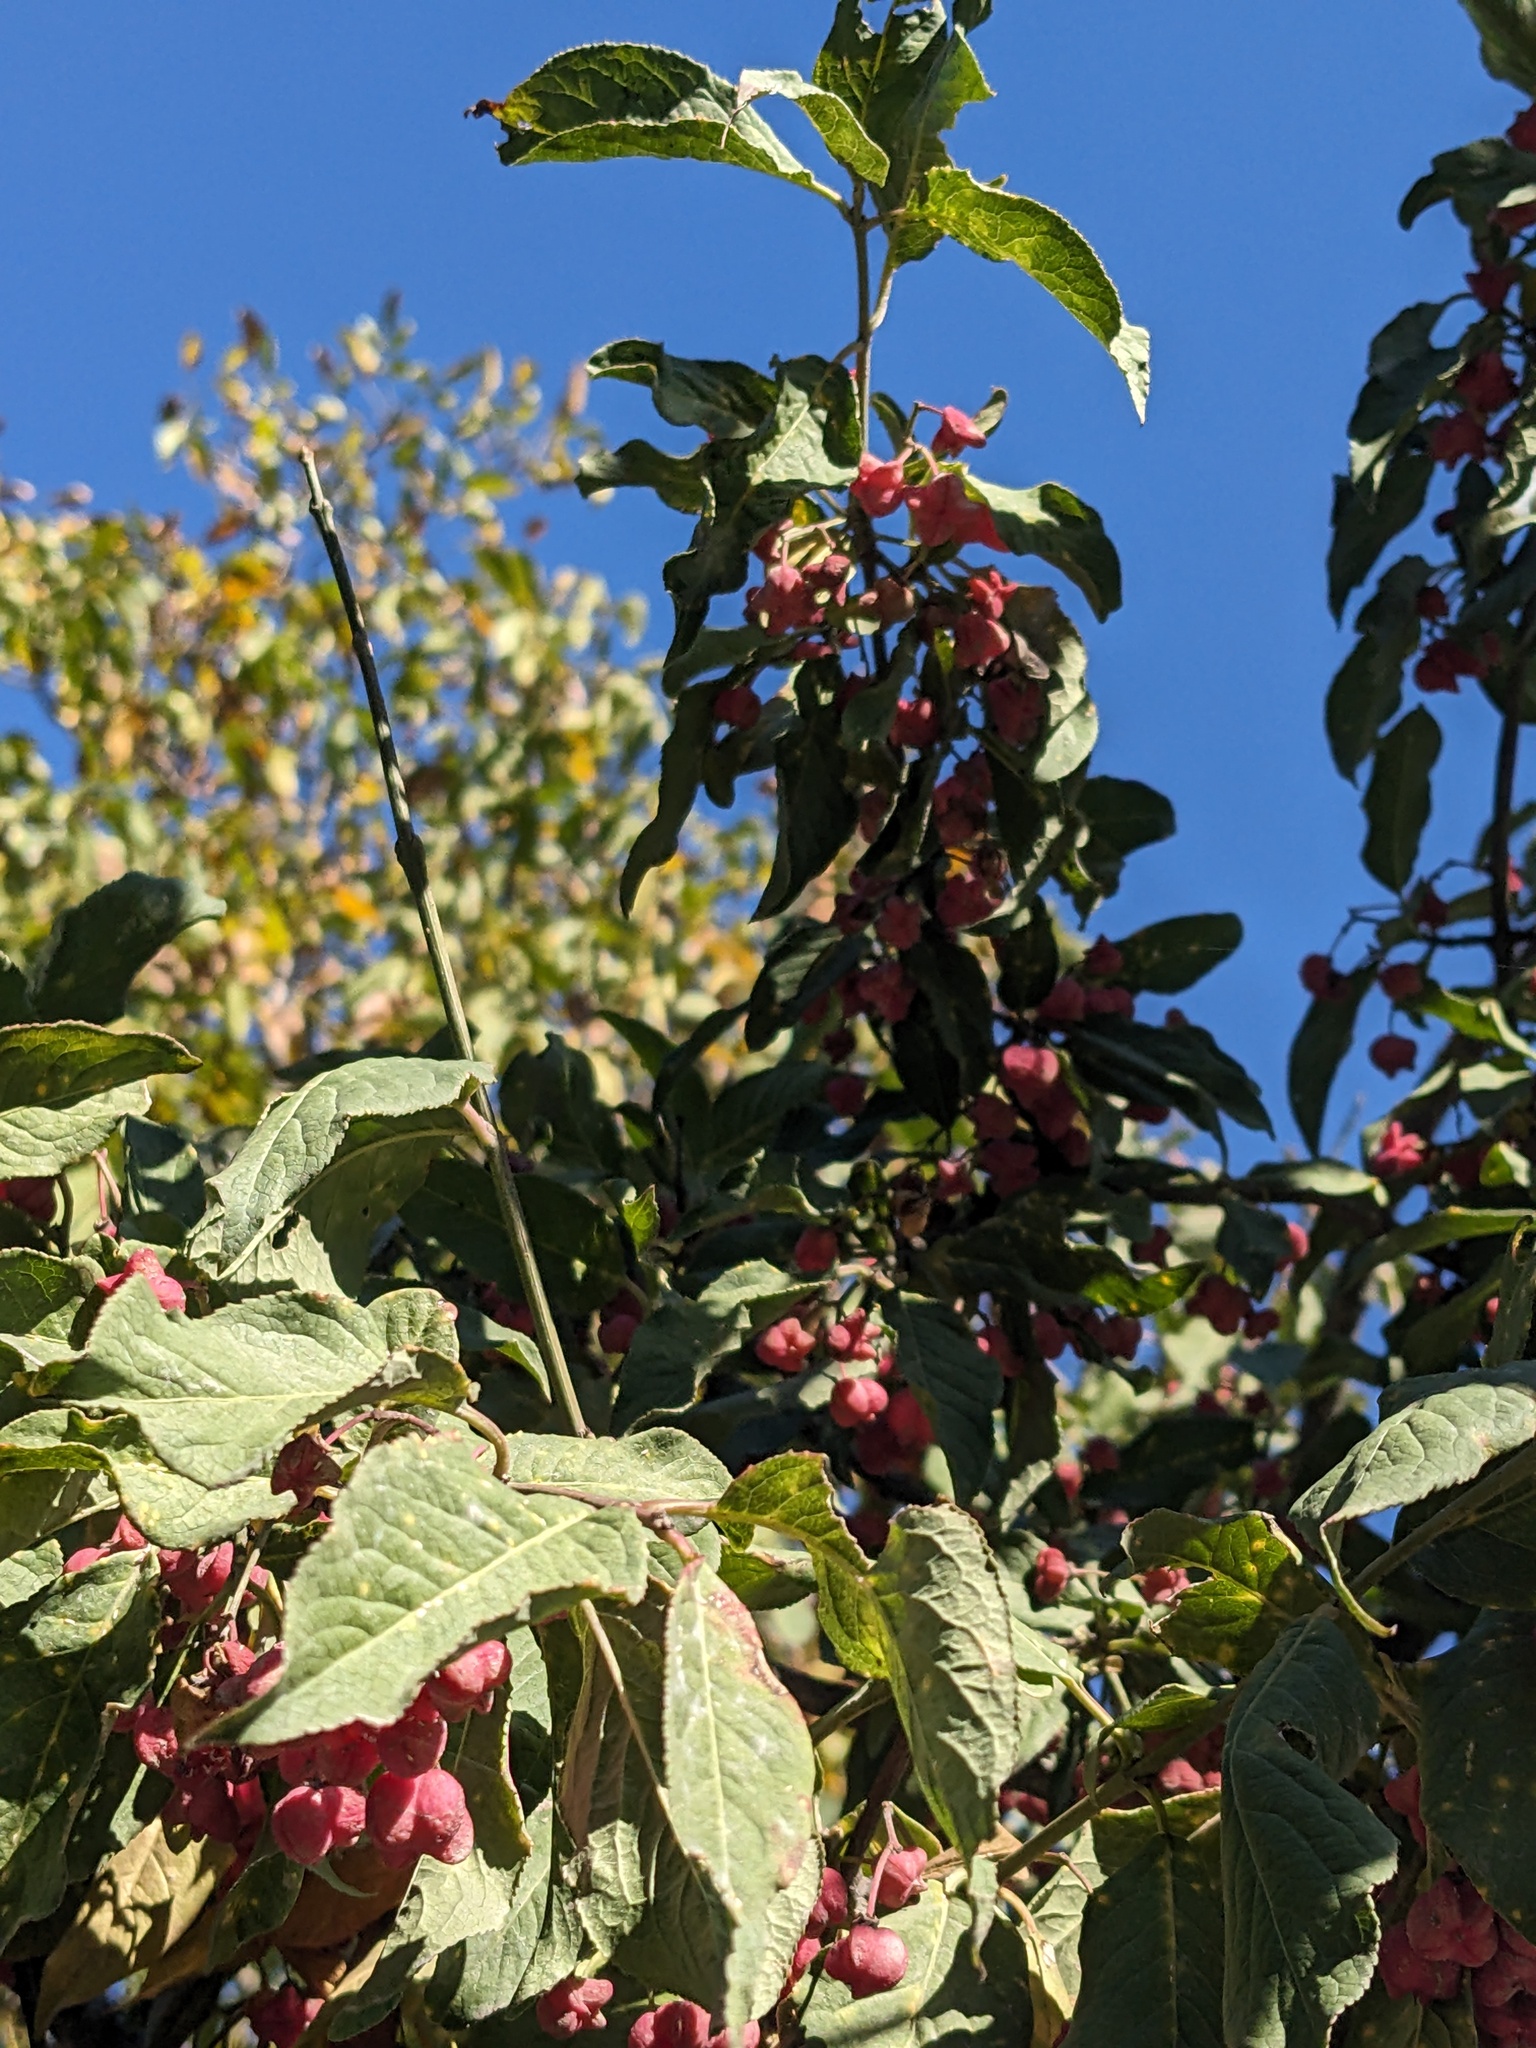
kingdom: Plantae
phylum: Tracheophyta
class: Magnoliopsida
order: Celastrales
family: Celastraceae
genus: Euonymus
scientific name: Euonymus europaeus
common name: Spindle
